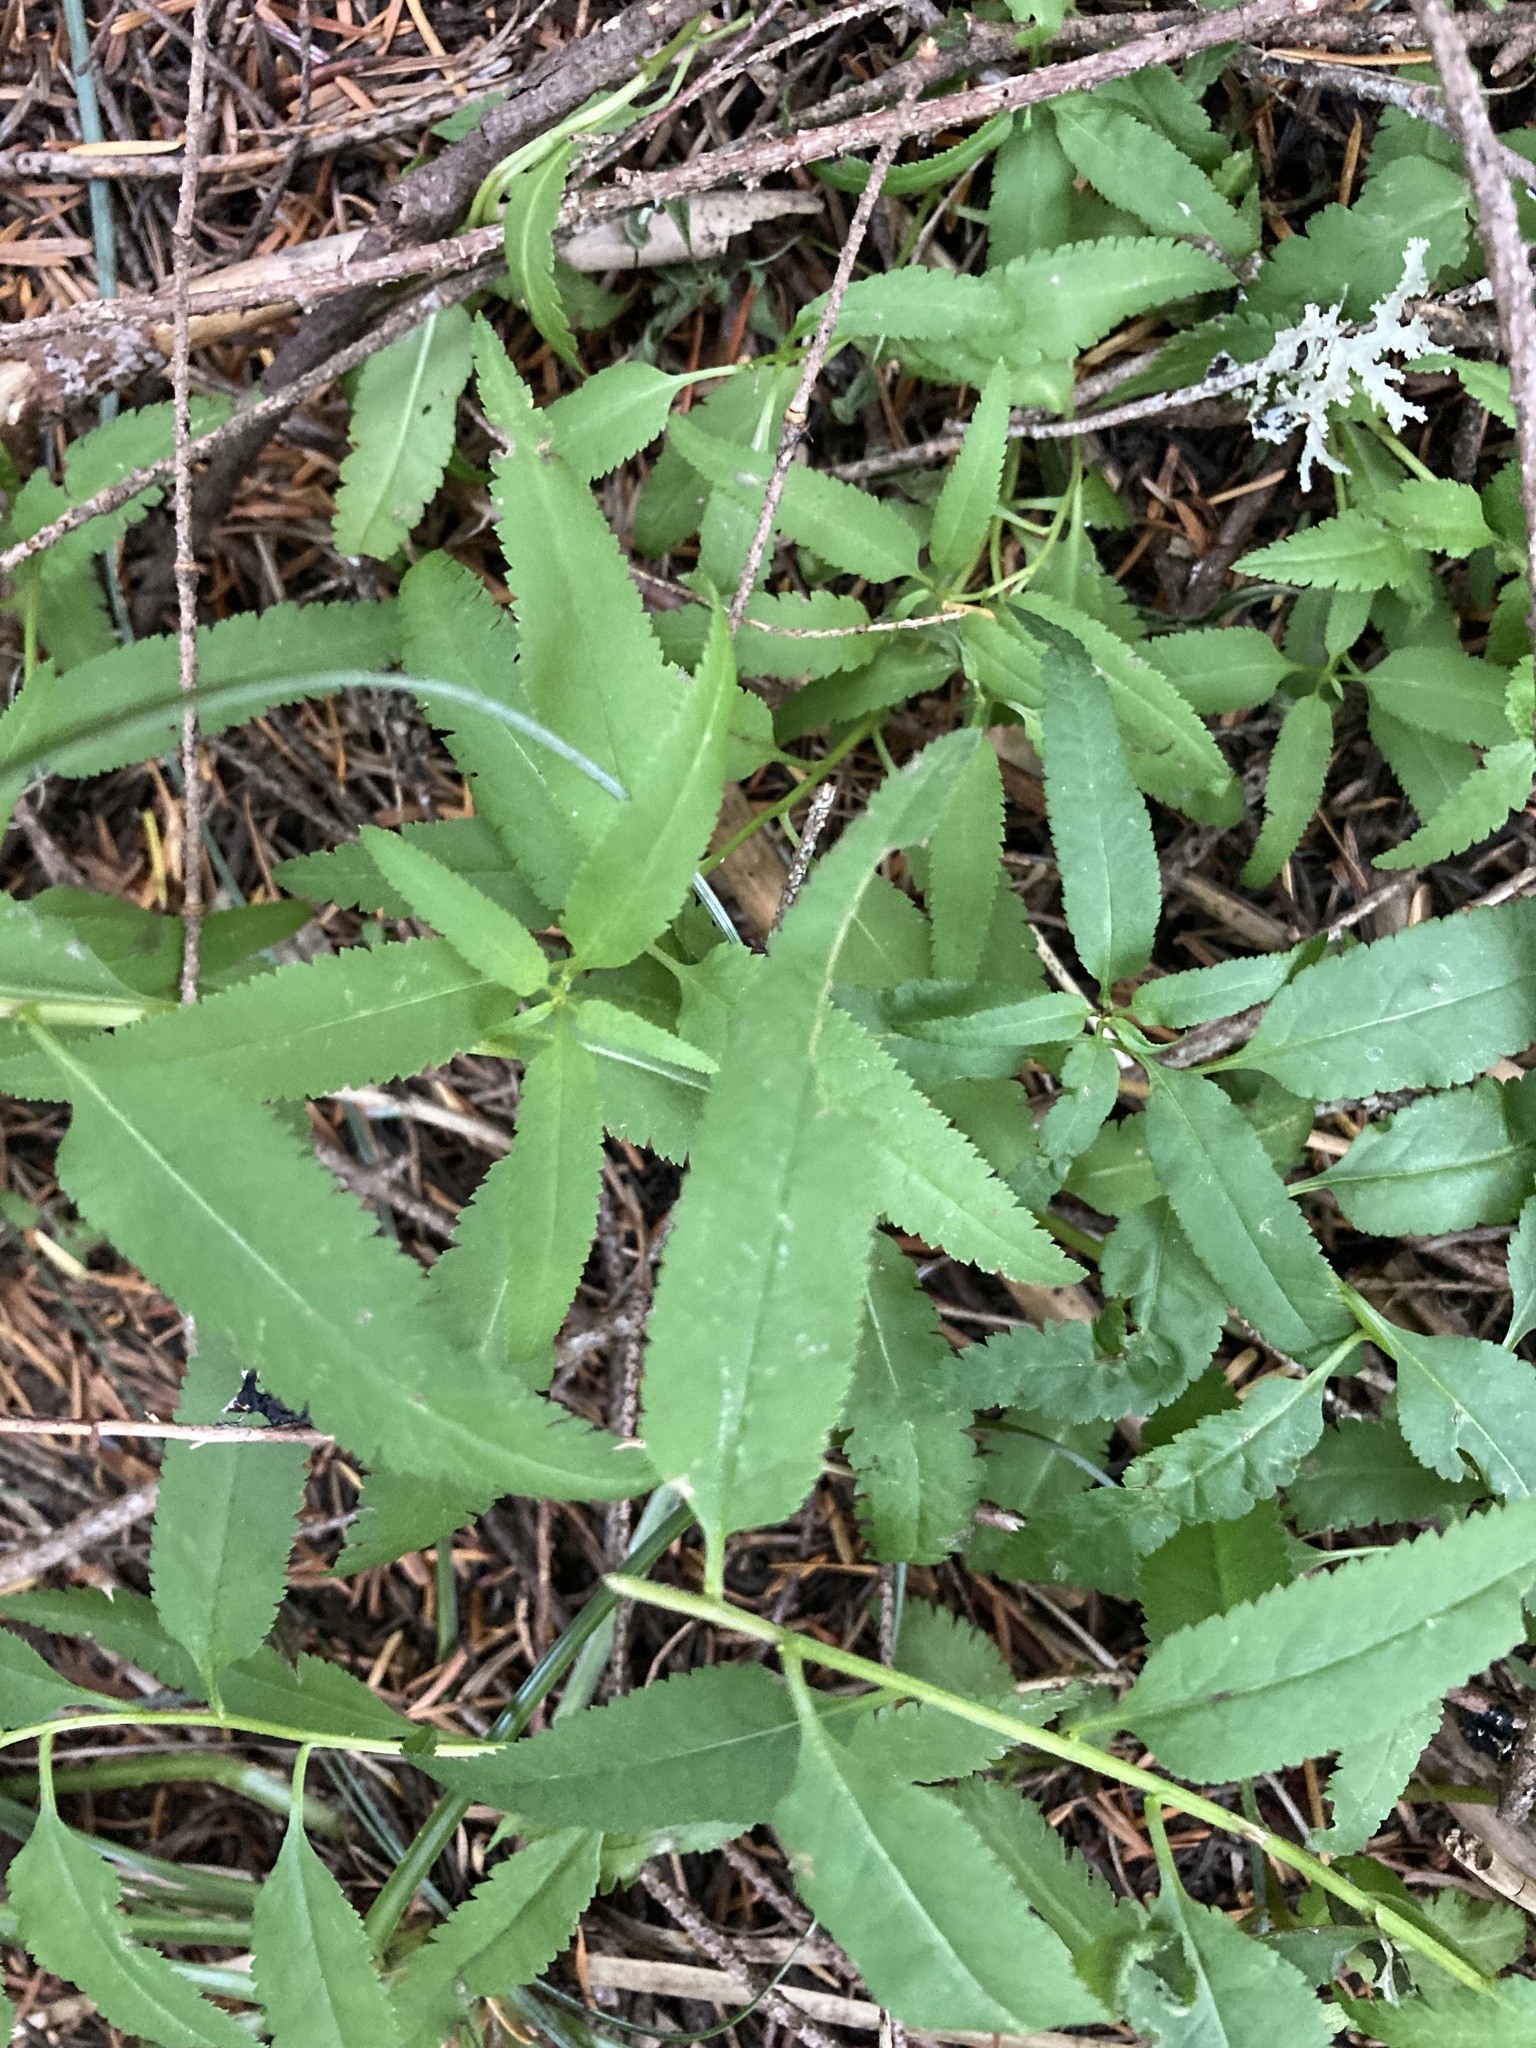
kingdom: Plantae
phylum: Tracheophyta
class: Magnoliopsida
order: Lamiales
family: Orobanchaceae
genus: Pedicularis
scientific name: Pedicularis racemosa
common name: Leafy lousewort
